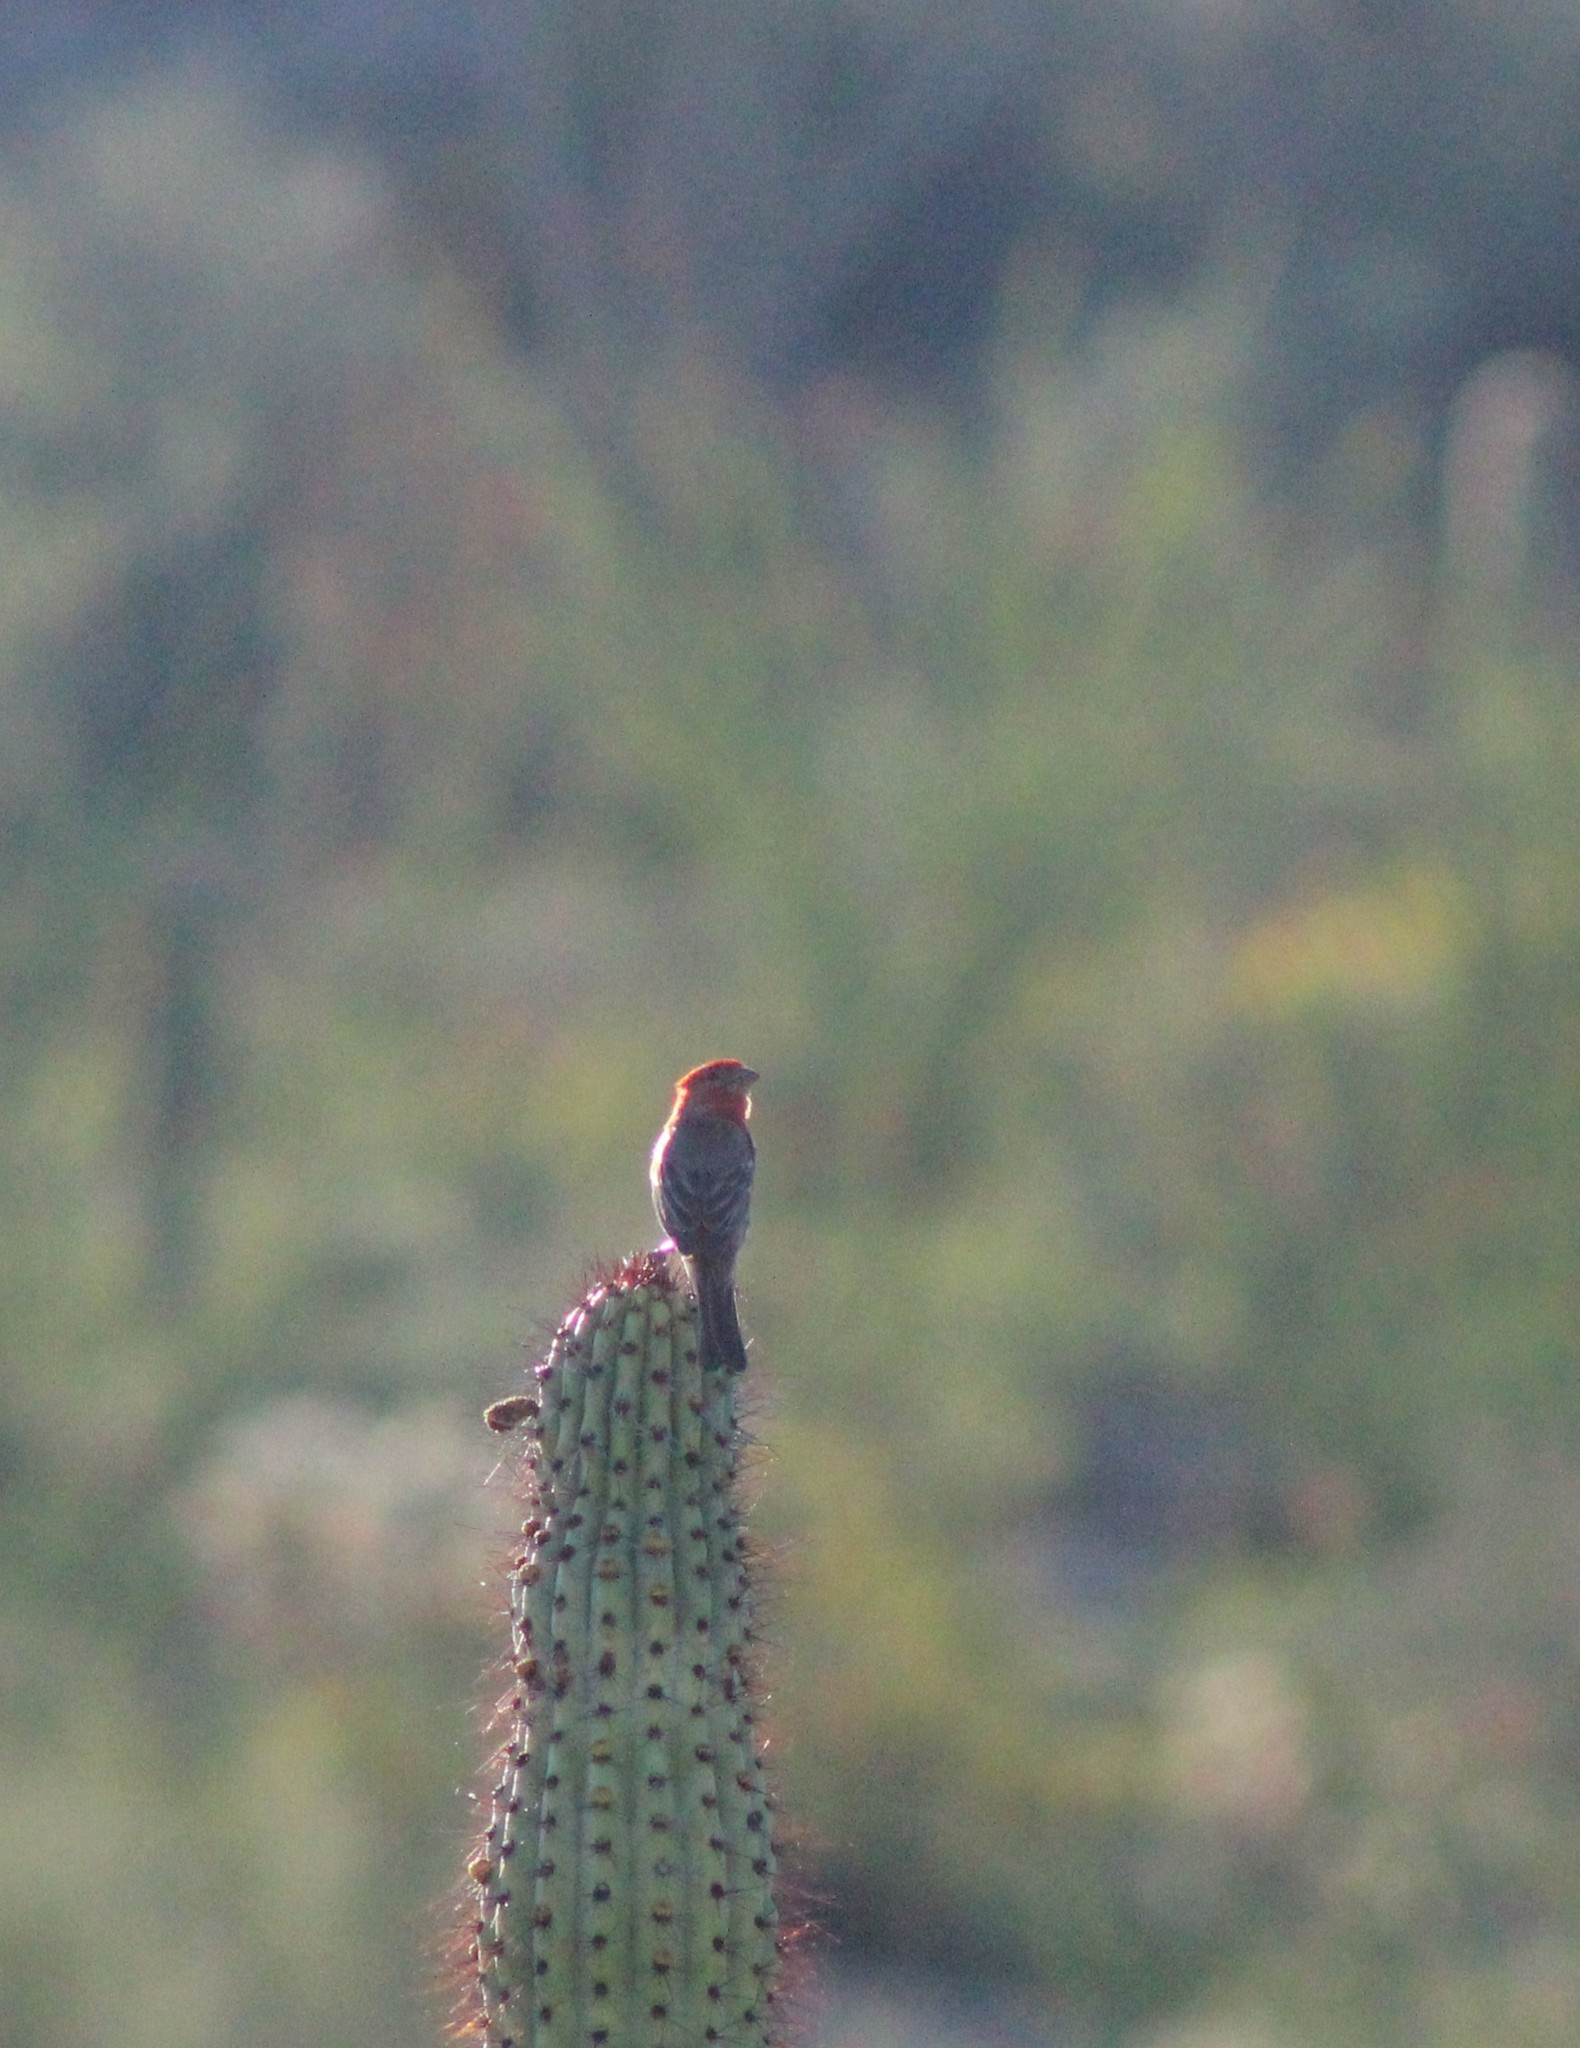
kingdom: Animalia
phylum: Chordata
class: Aves
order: Passeriformes
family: Fringillidae
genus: Haemorhous
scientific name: Haemorhous mexicanus
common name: House finch
